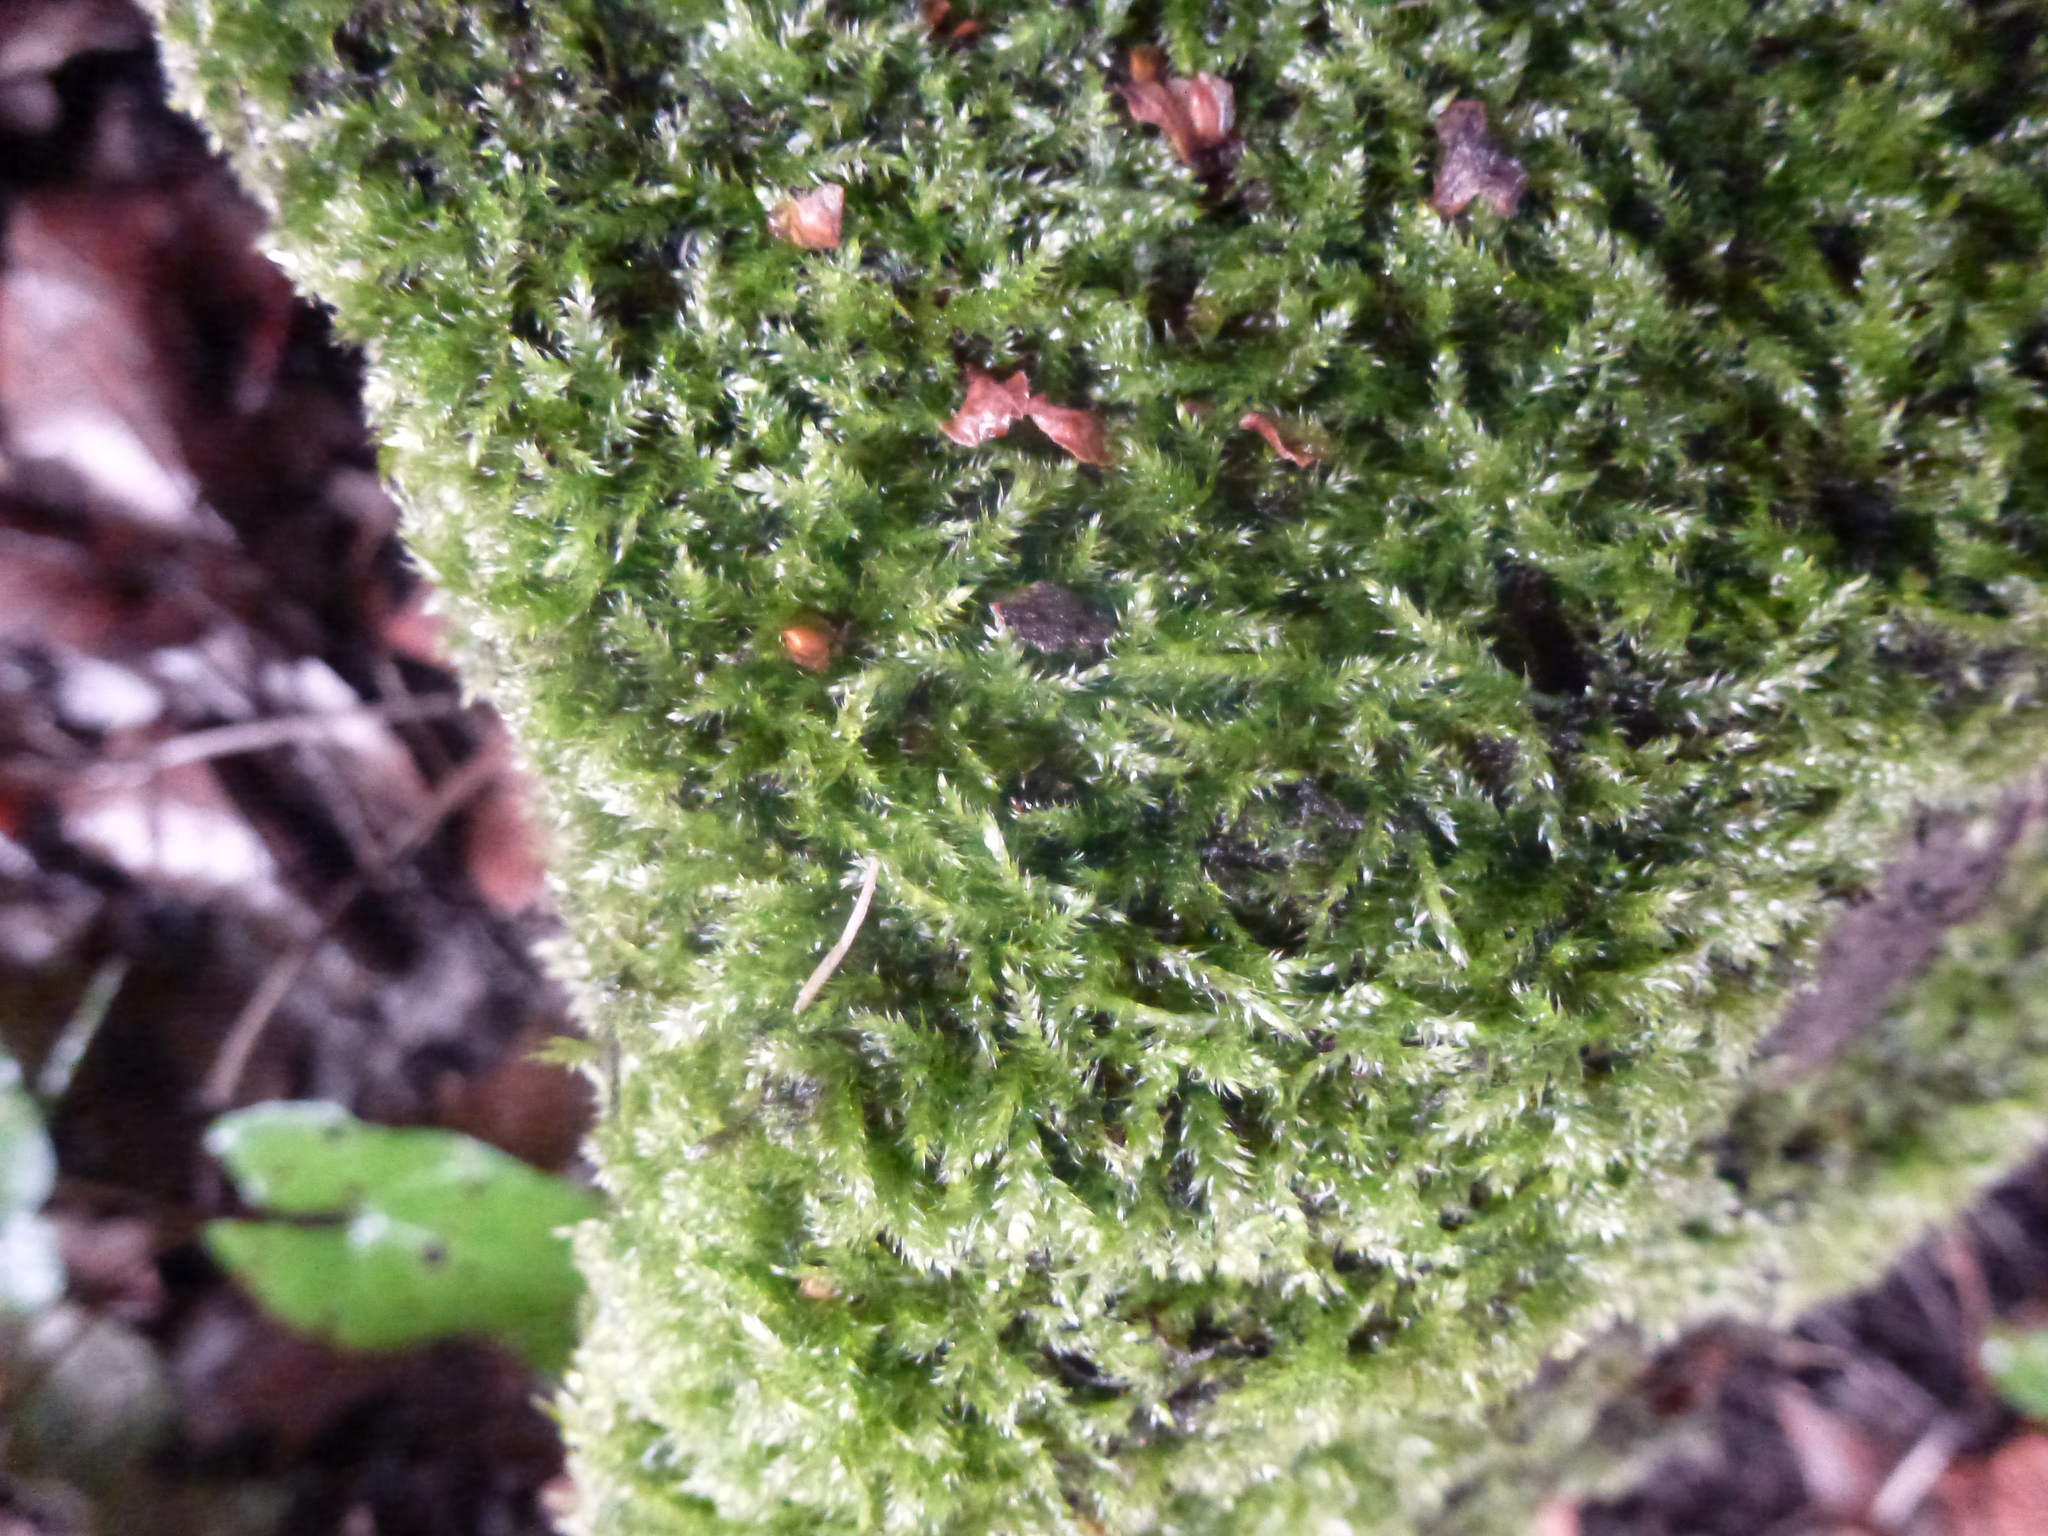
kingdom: Plantae
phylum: Bryophyta
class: Bryopsida
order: Hypnales
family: Hypnaceae
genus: Hypnum
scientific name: Hypnum cupressiforme
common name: Cypress-leaved plait-moss
